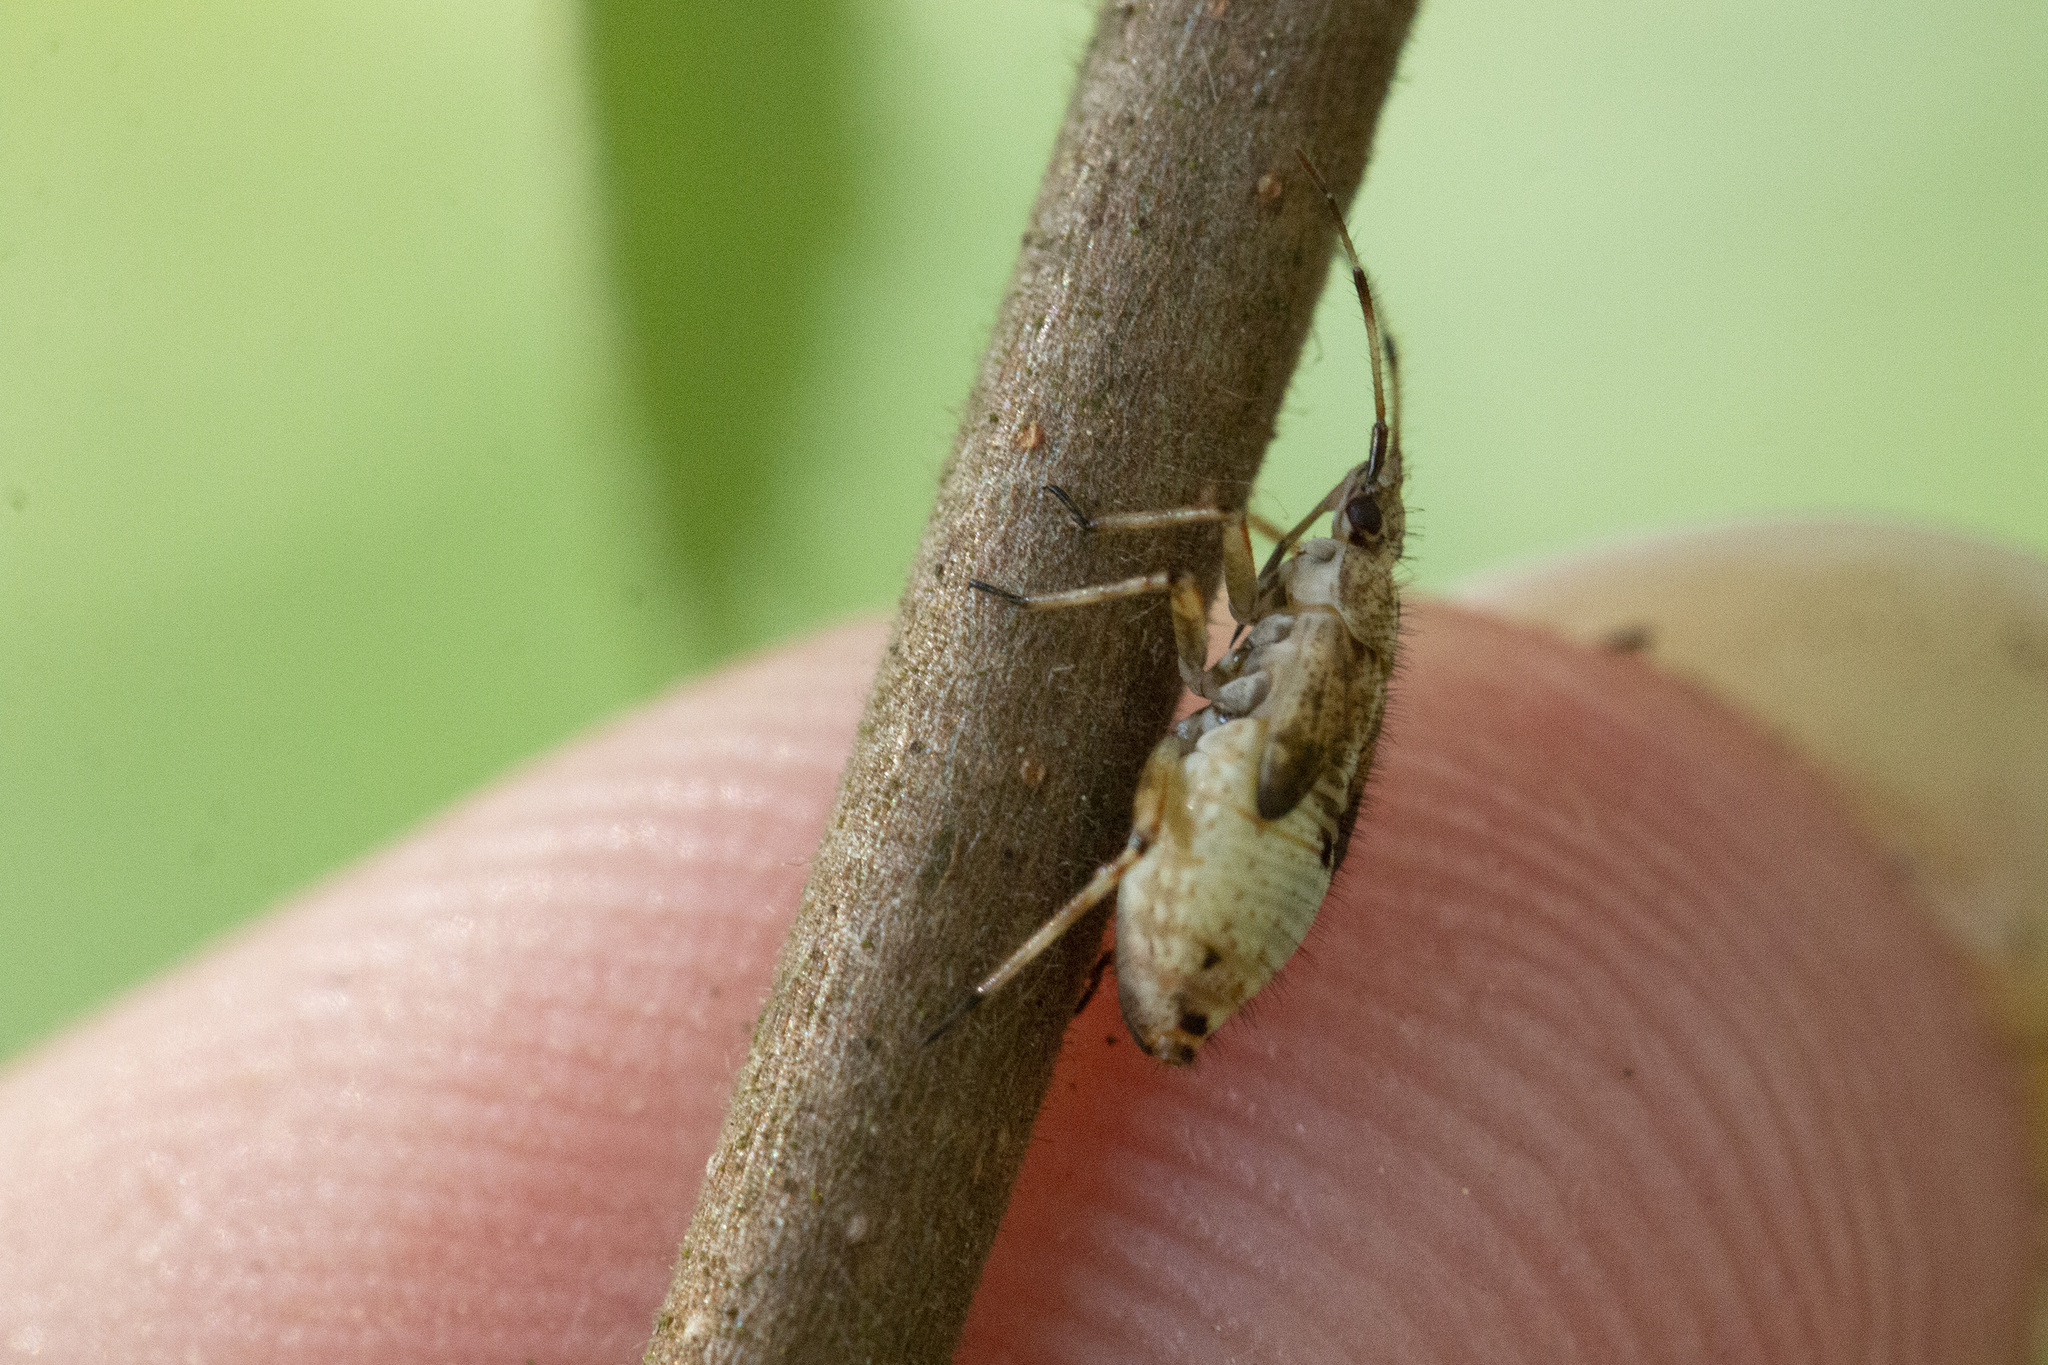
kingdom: Animalia
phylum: Arthropoda
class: Insecta
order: Hemiptera
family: Miridae
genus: Deraeocoris
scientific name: Deraeocoris flavilinea
